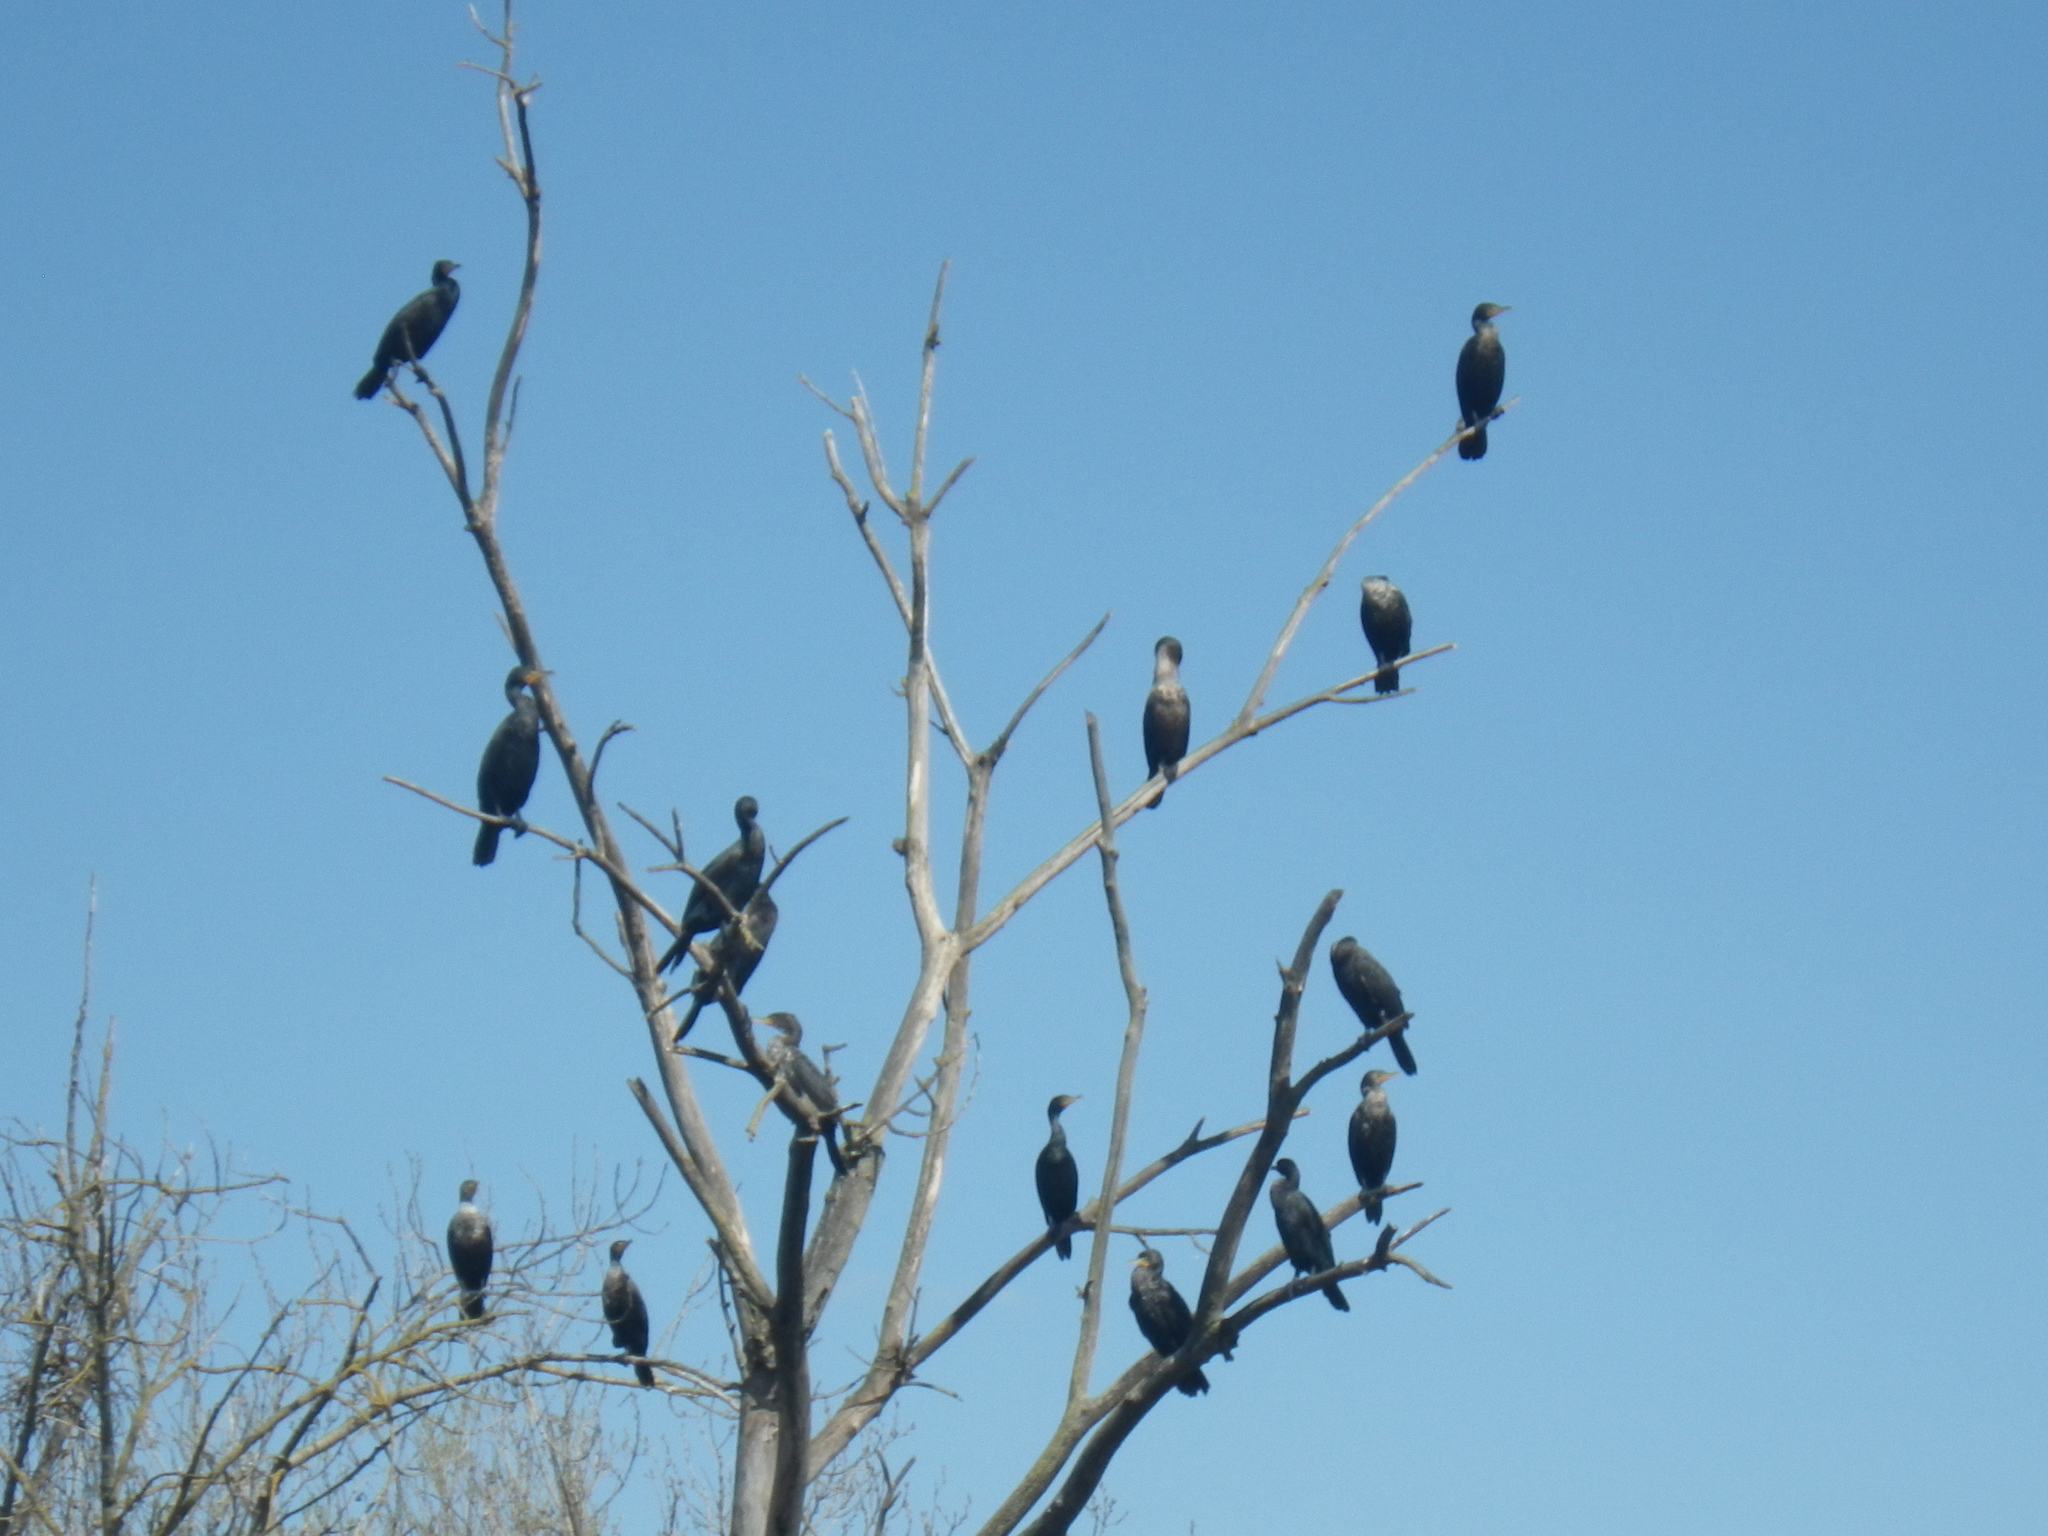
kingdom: Animalia
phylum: Chordata
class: Aves
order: Suliformes
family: Phalacrocoracidae
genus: Phalacrocorax
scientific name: Phalacrocorax auritus
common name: Double-crested cormorant
